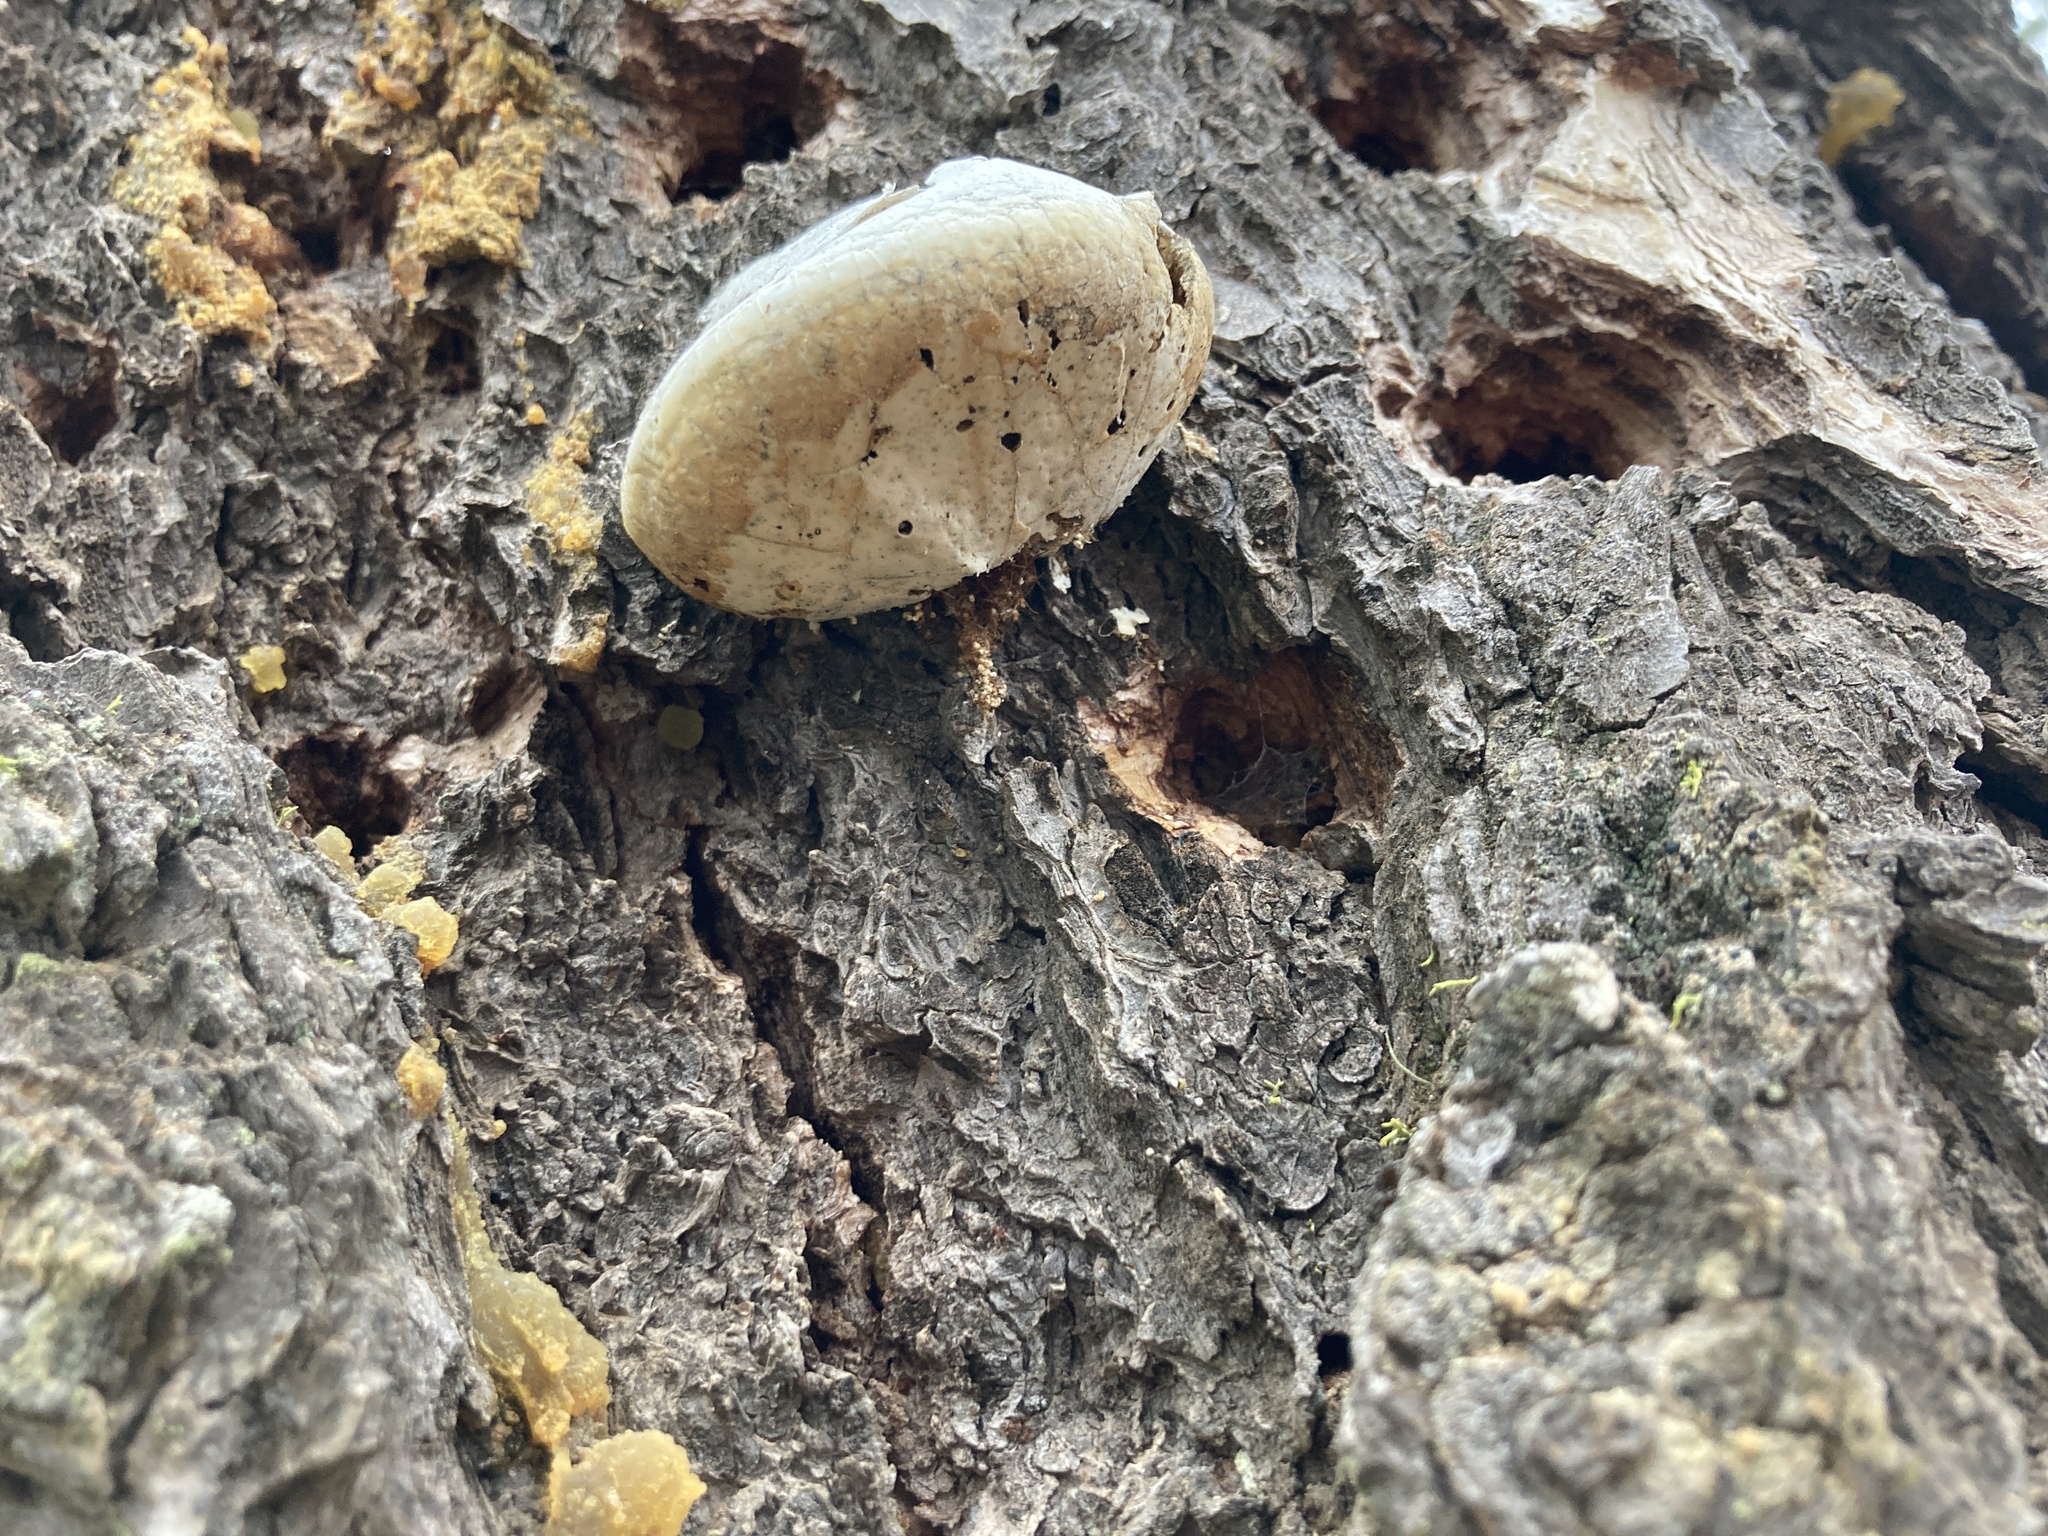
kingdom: Fungi
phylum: Basidiomycota
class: Agaricomycetes
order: Polyporales
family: Polyporaceae
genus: Cryptoporus
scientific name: Cryptoporus volvatus
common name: Veiled polypore
